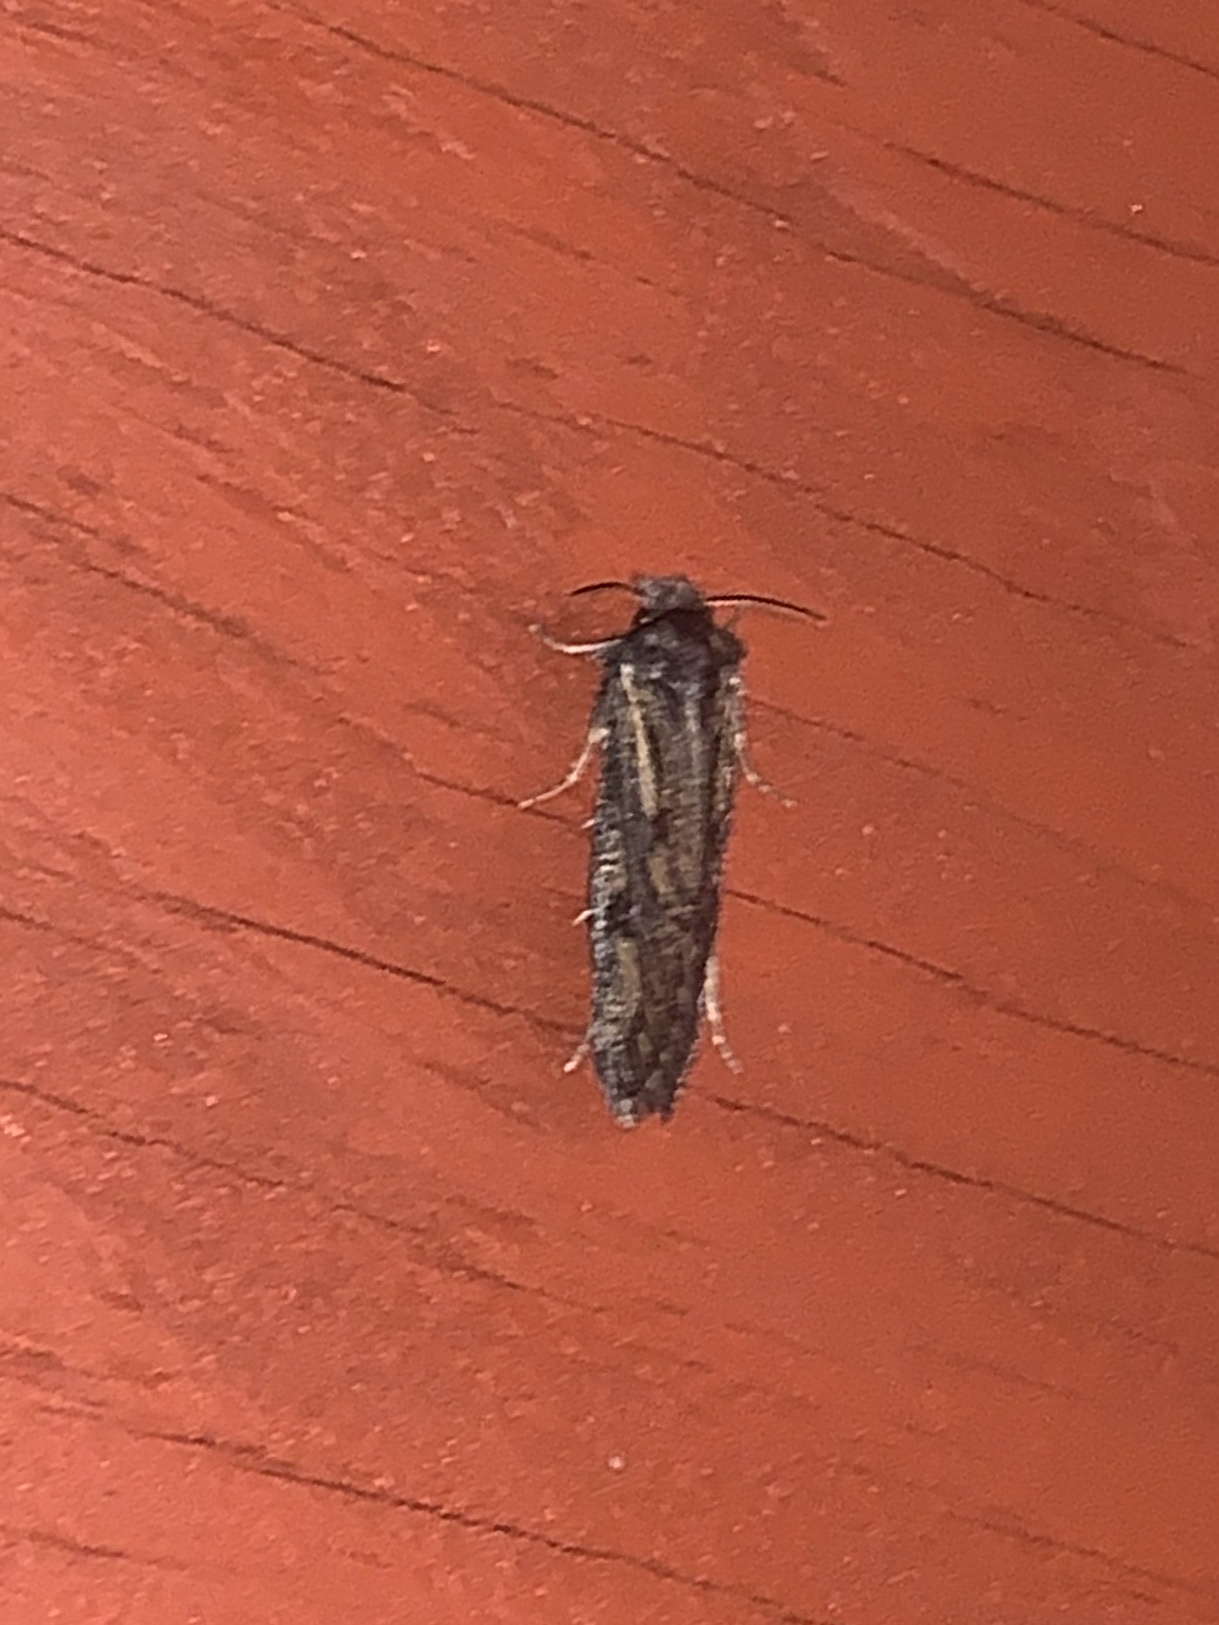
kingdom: Animalia
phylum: Arthropoda
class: Insecta
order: Lepidoptera
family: Tineidae
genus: Acrolophus
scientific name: Acrolophus popeanella
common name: Clemens' grass tubeworm moth
